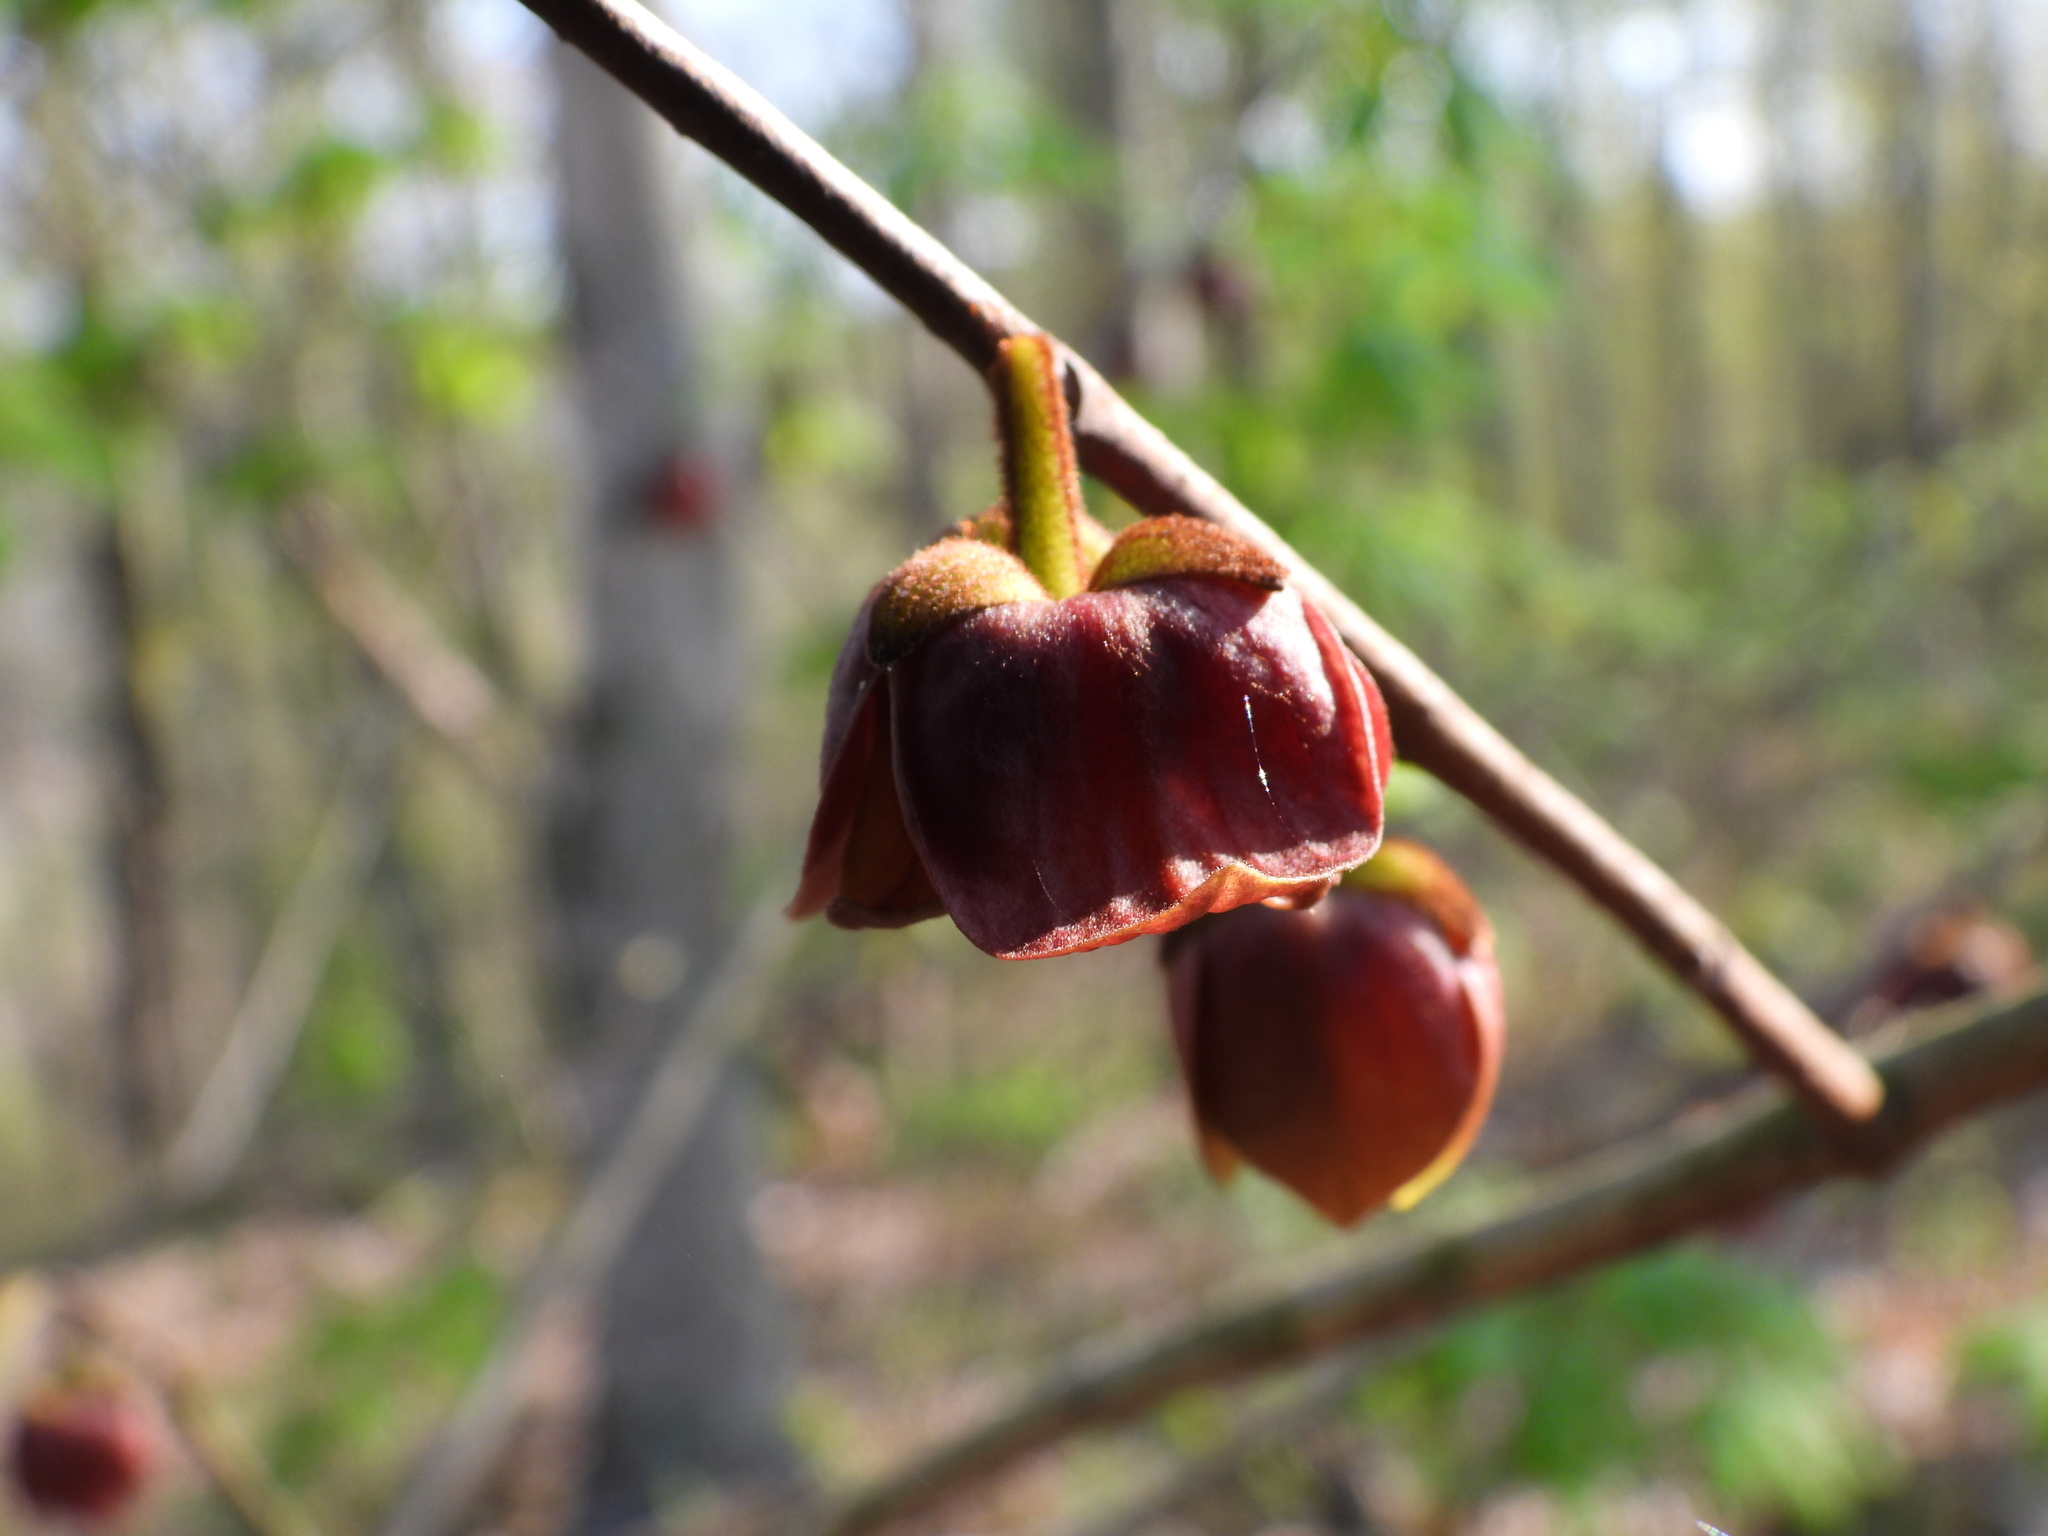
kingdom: Plantae
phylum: Tracheophyta
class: Magnoliopsida
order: Magnoliales
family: Annonaceae
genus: Asimina
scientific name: Asimina triloba
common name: Dog-banana
